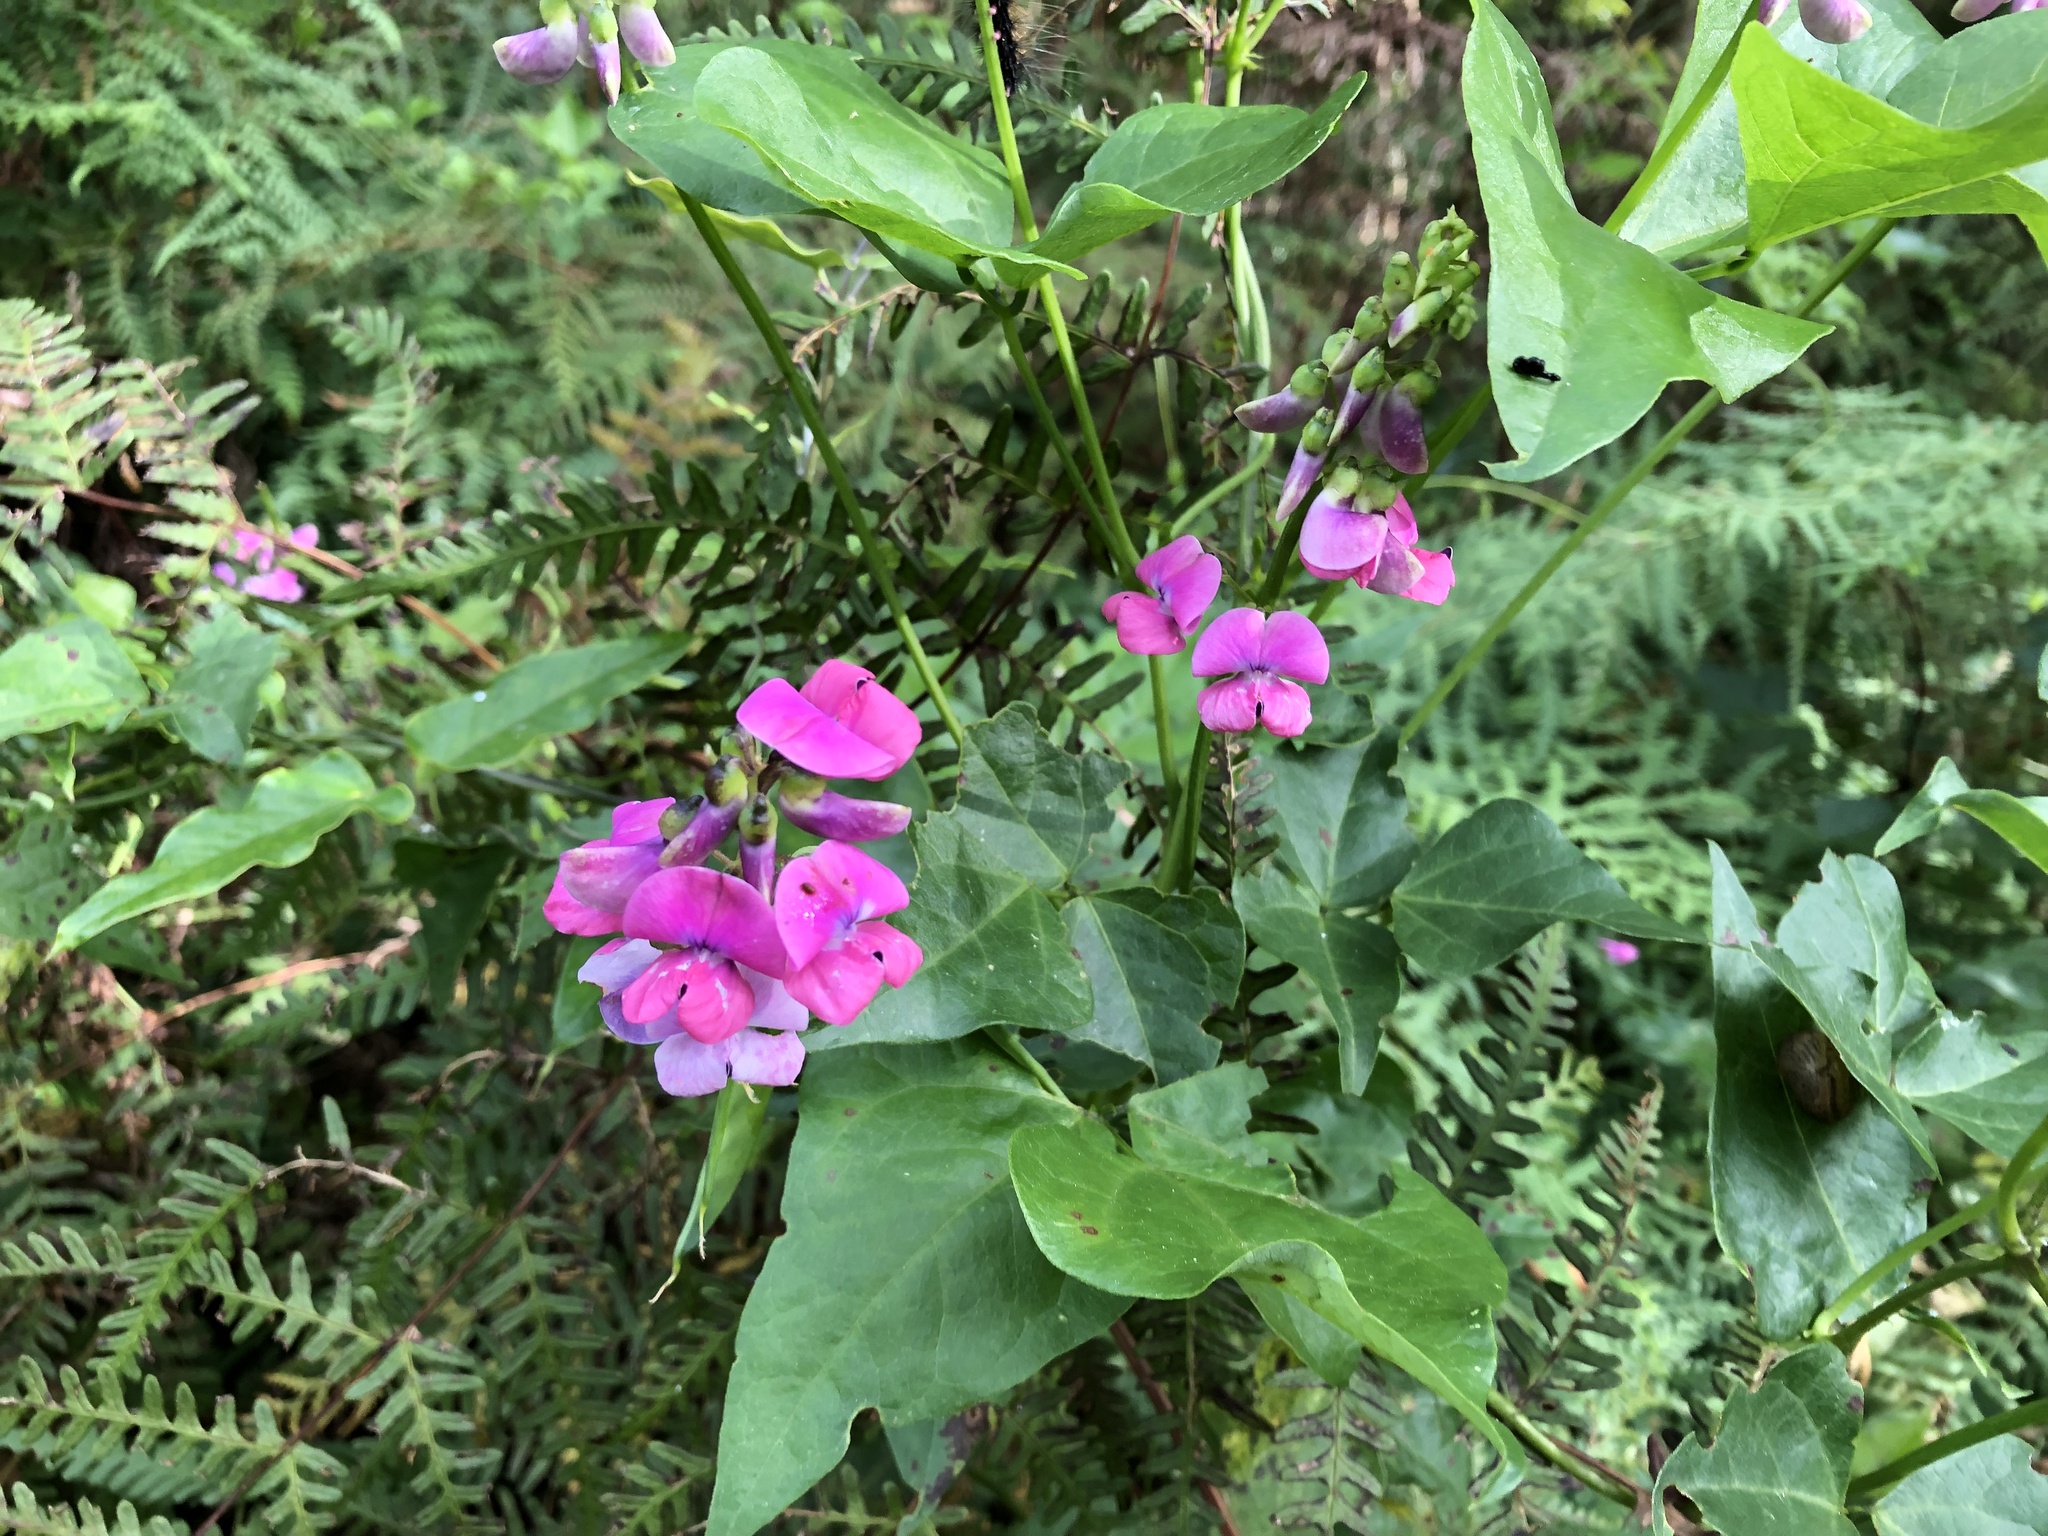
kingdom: Plantae
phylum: Tracheophyta
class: Magnoliopsida
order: Fabales
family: Fabaceae
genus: Dipogon
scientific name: Dipogon lignosus
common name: Okie bean
